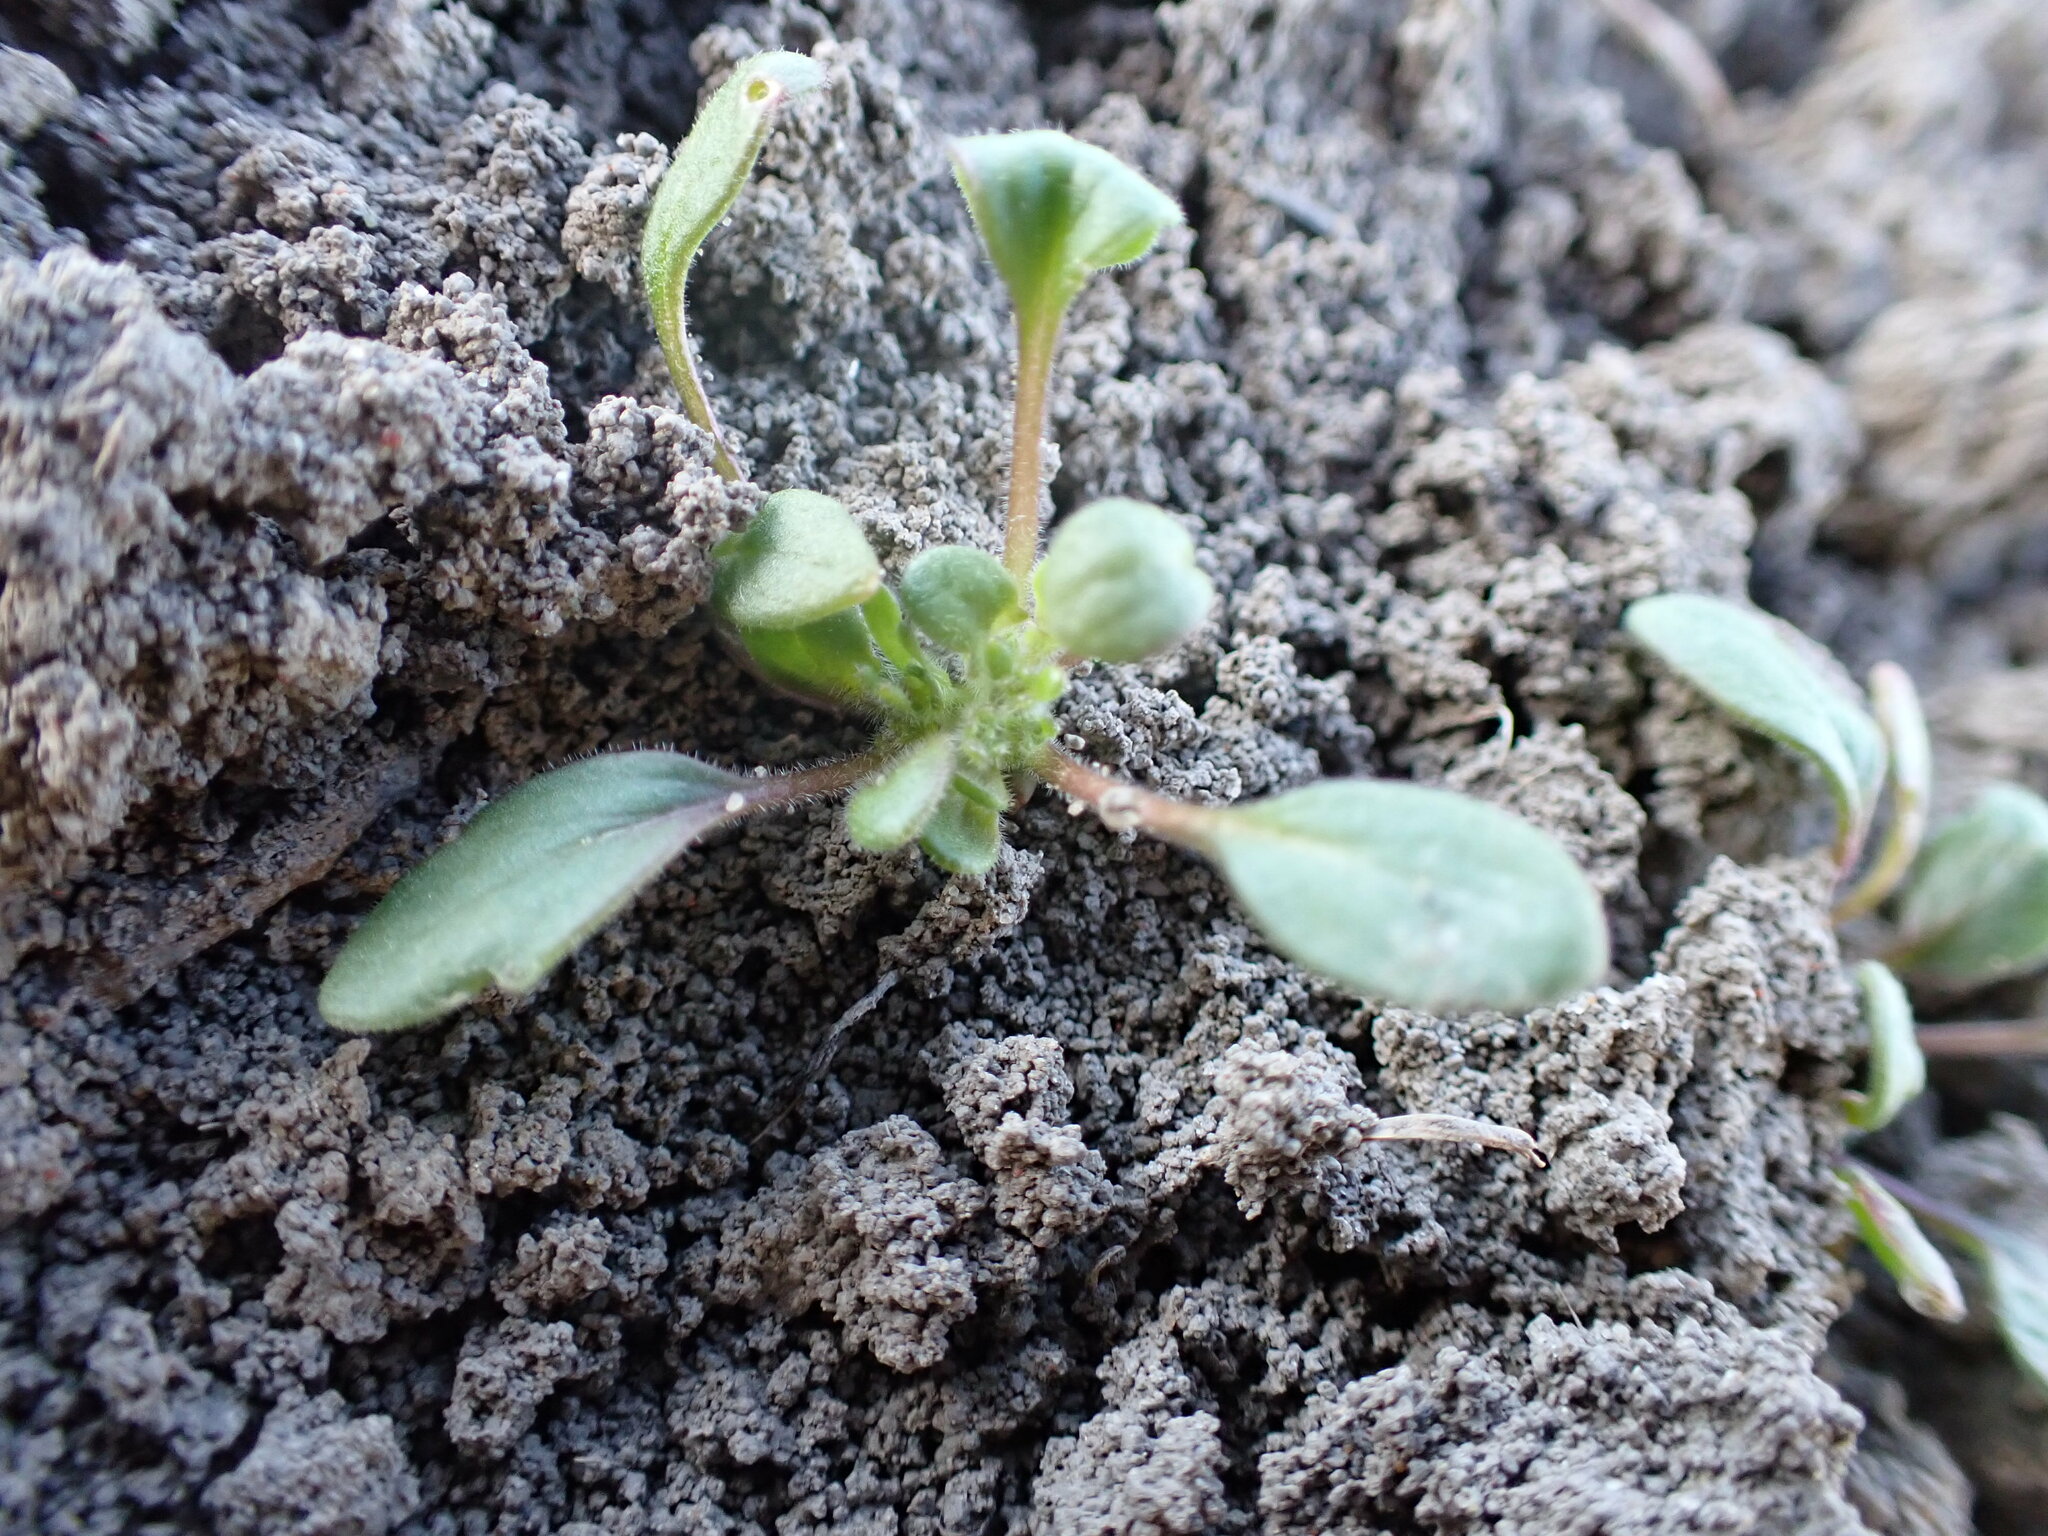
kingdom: Plantae
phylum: Tracheophyta
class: Magnoliopsida
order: Boraginales
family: Hydrophyllaceae
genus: Phacelia
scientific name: Phacelia scopulina
